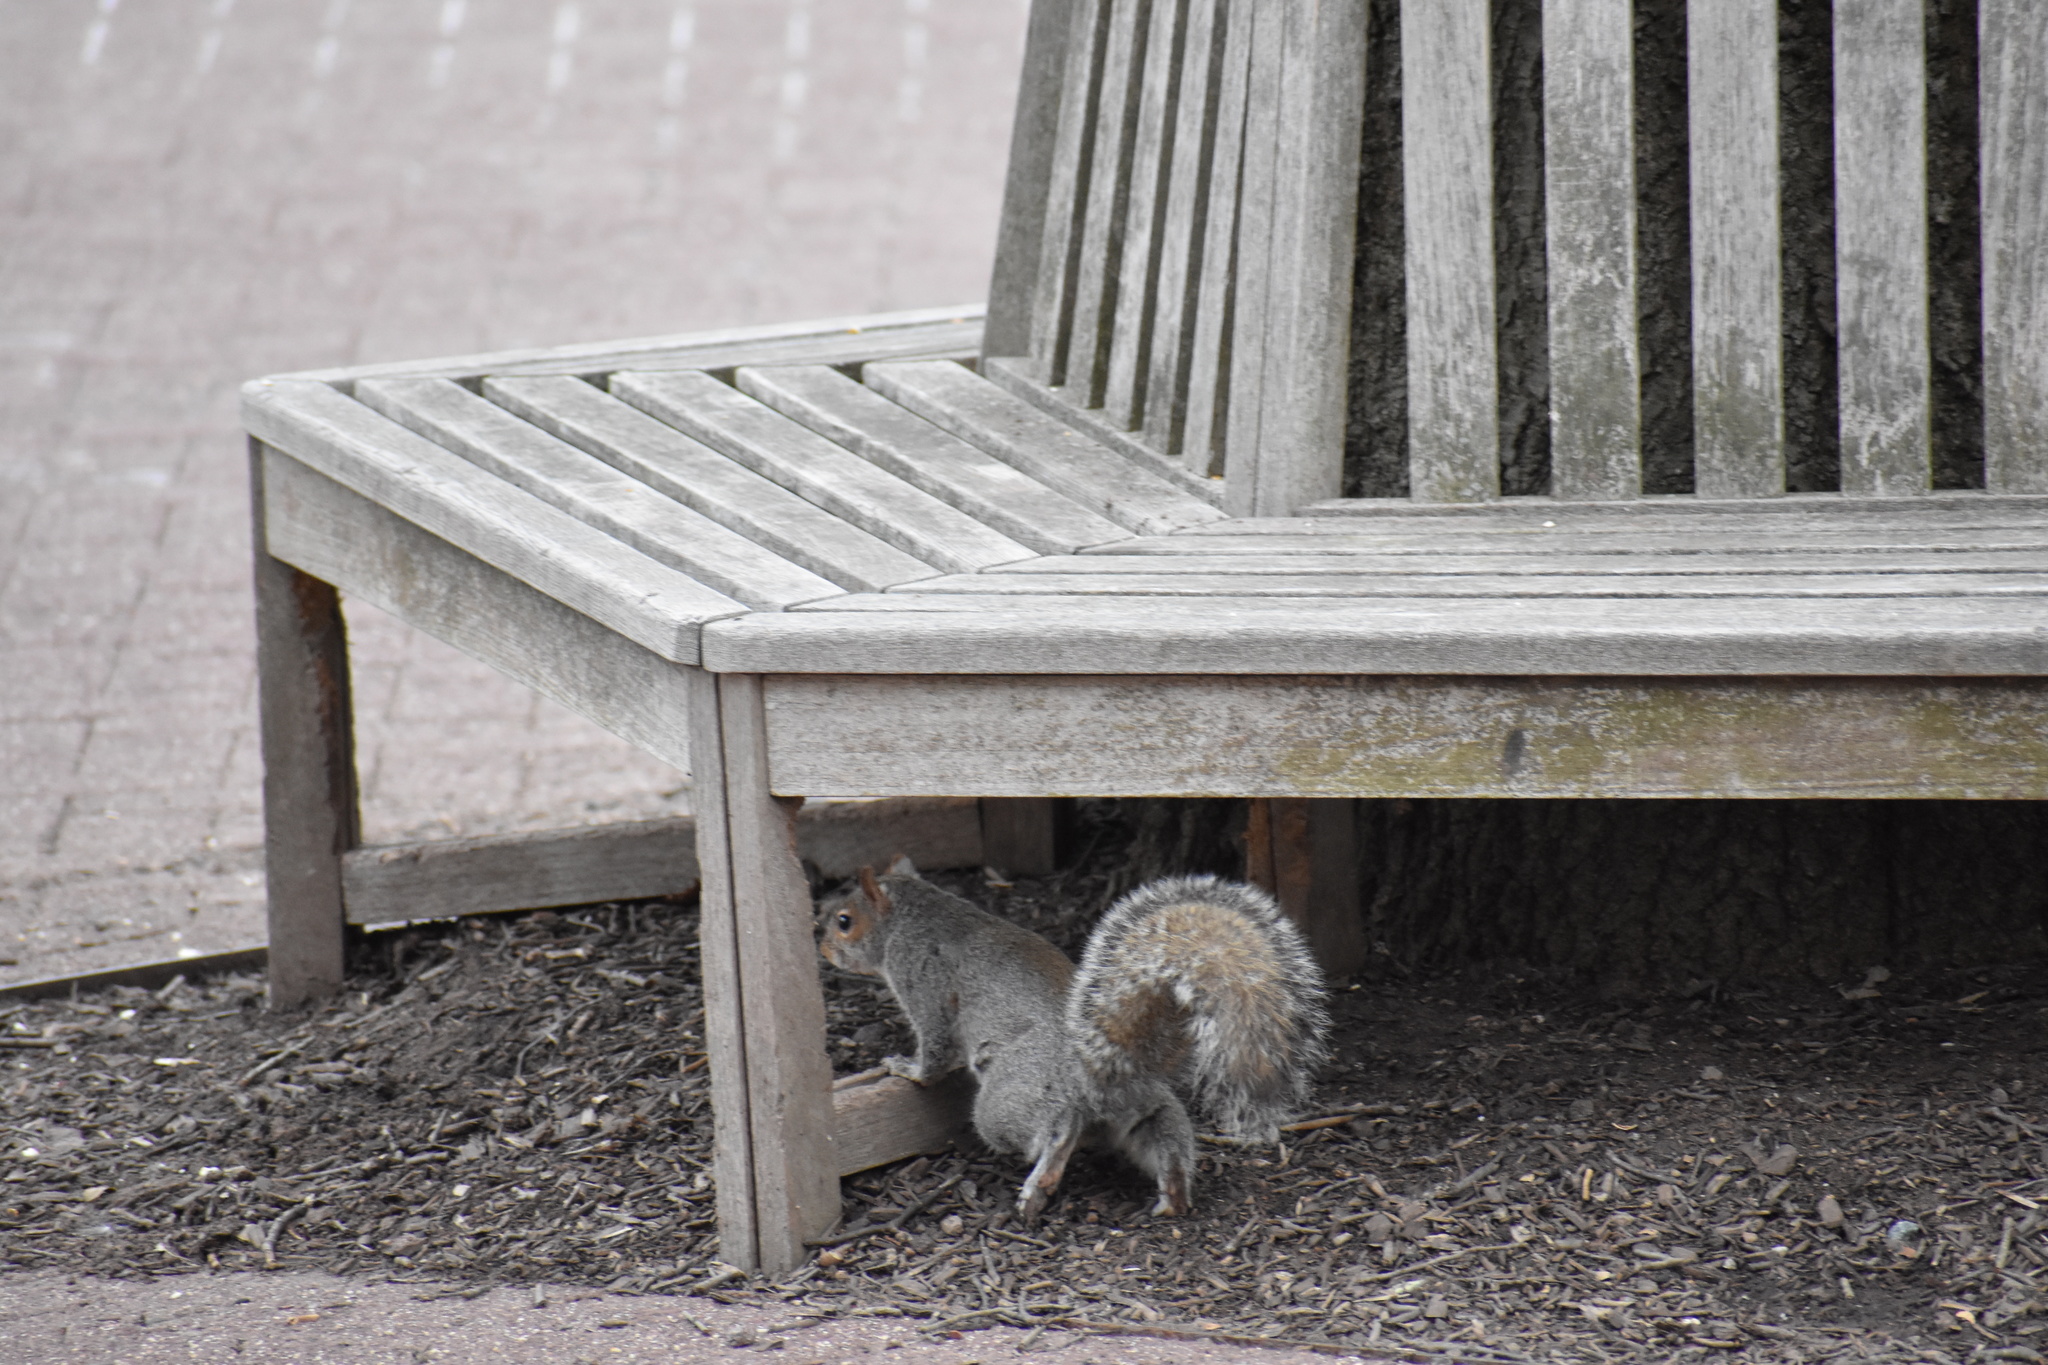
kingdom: Animalia
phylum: Chordata
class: Mammalia
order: Rodentia
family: Sciuridae
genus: Sciurus
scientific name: Sciurus carolinensis
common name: Eastern gray squirrel
